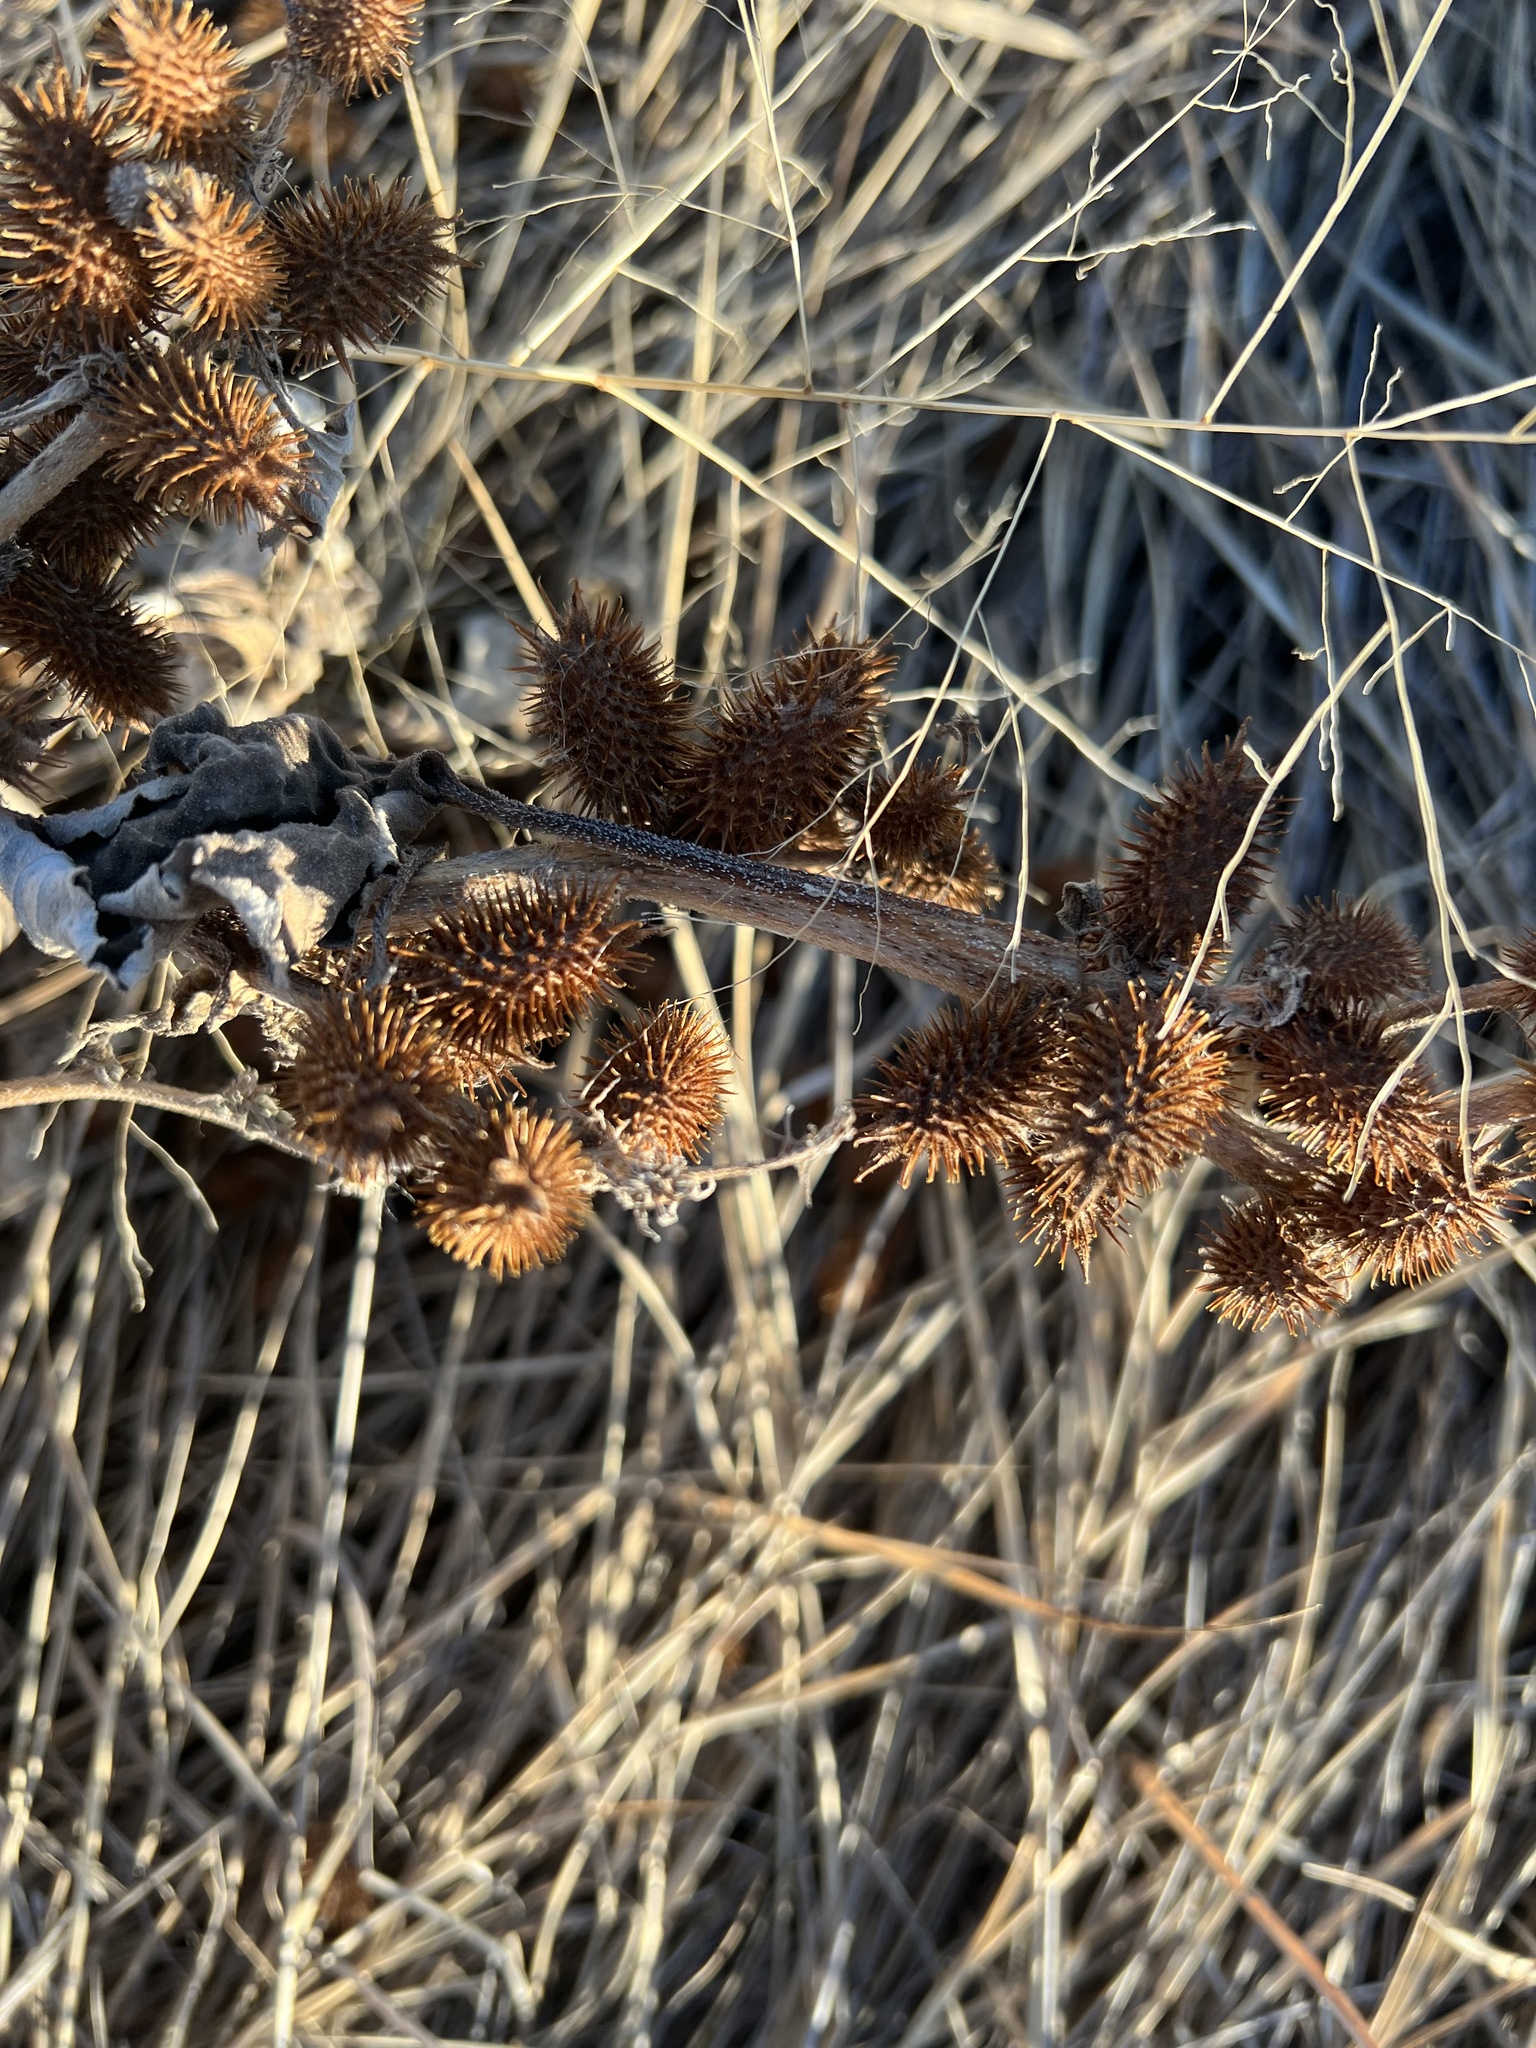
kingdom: Plantae
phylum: Tracheophyta
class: Magnoliopsida
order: Asterales
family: Asteraceae
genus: Xanthium
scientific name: Xanthium strumarium
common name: Rough cocklebur
